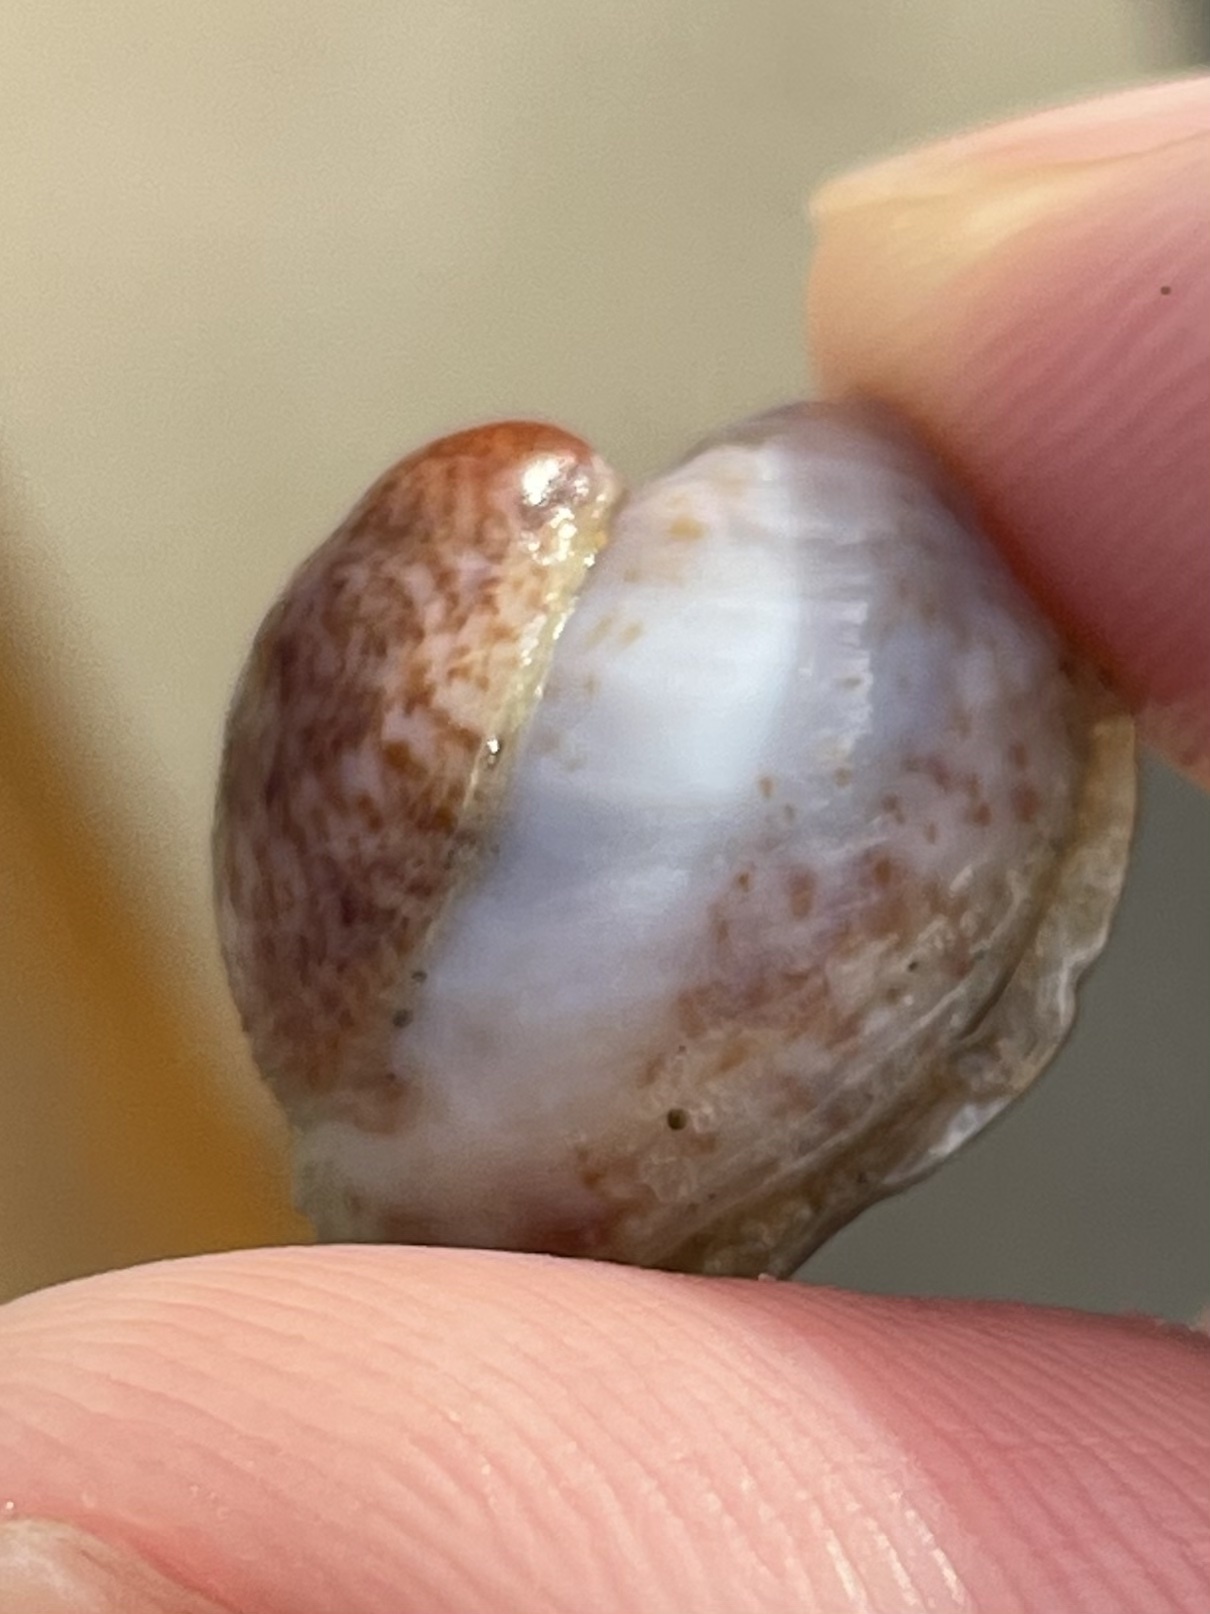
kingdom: Animalia
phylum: Mollusca
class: Gastropoda
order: Littorinimorpha
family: Calyptraeidae
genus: Crepidula
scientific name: Crepidula fornicata
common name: Slipper limpet
